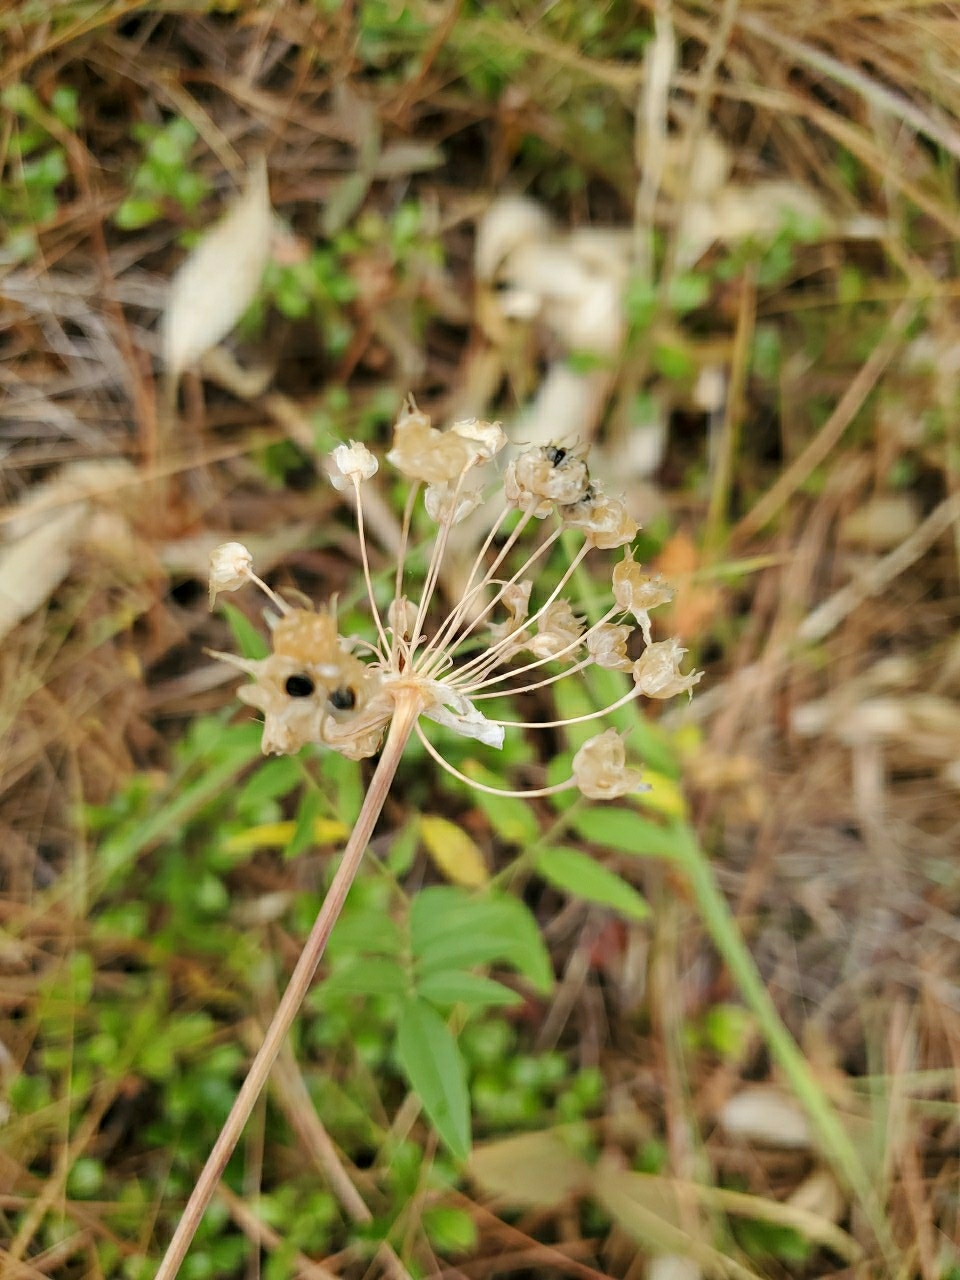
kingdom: Plantae
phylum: Tracheophyta
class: Liliopsida
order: Asparagales
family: Amaryllidaceae
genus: Allium
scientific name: Allium cernuum
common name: Nodding onion
